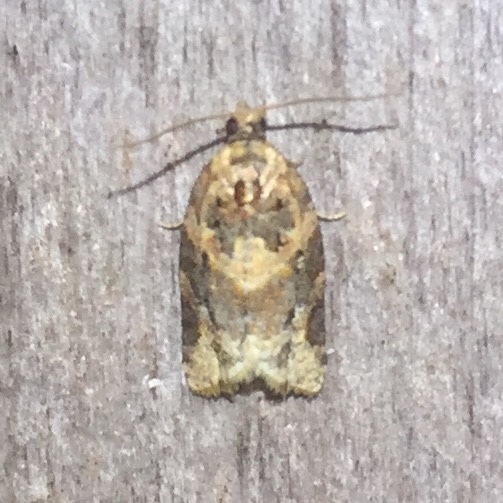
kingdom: Animalia
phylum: Arthropoda
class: Insecta
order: Lepidoptera
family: Tortricidae
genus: Argyrotaenia
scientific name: Argyrotaenia velutinana
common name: Red-banded leafroller moth
